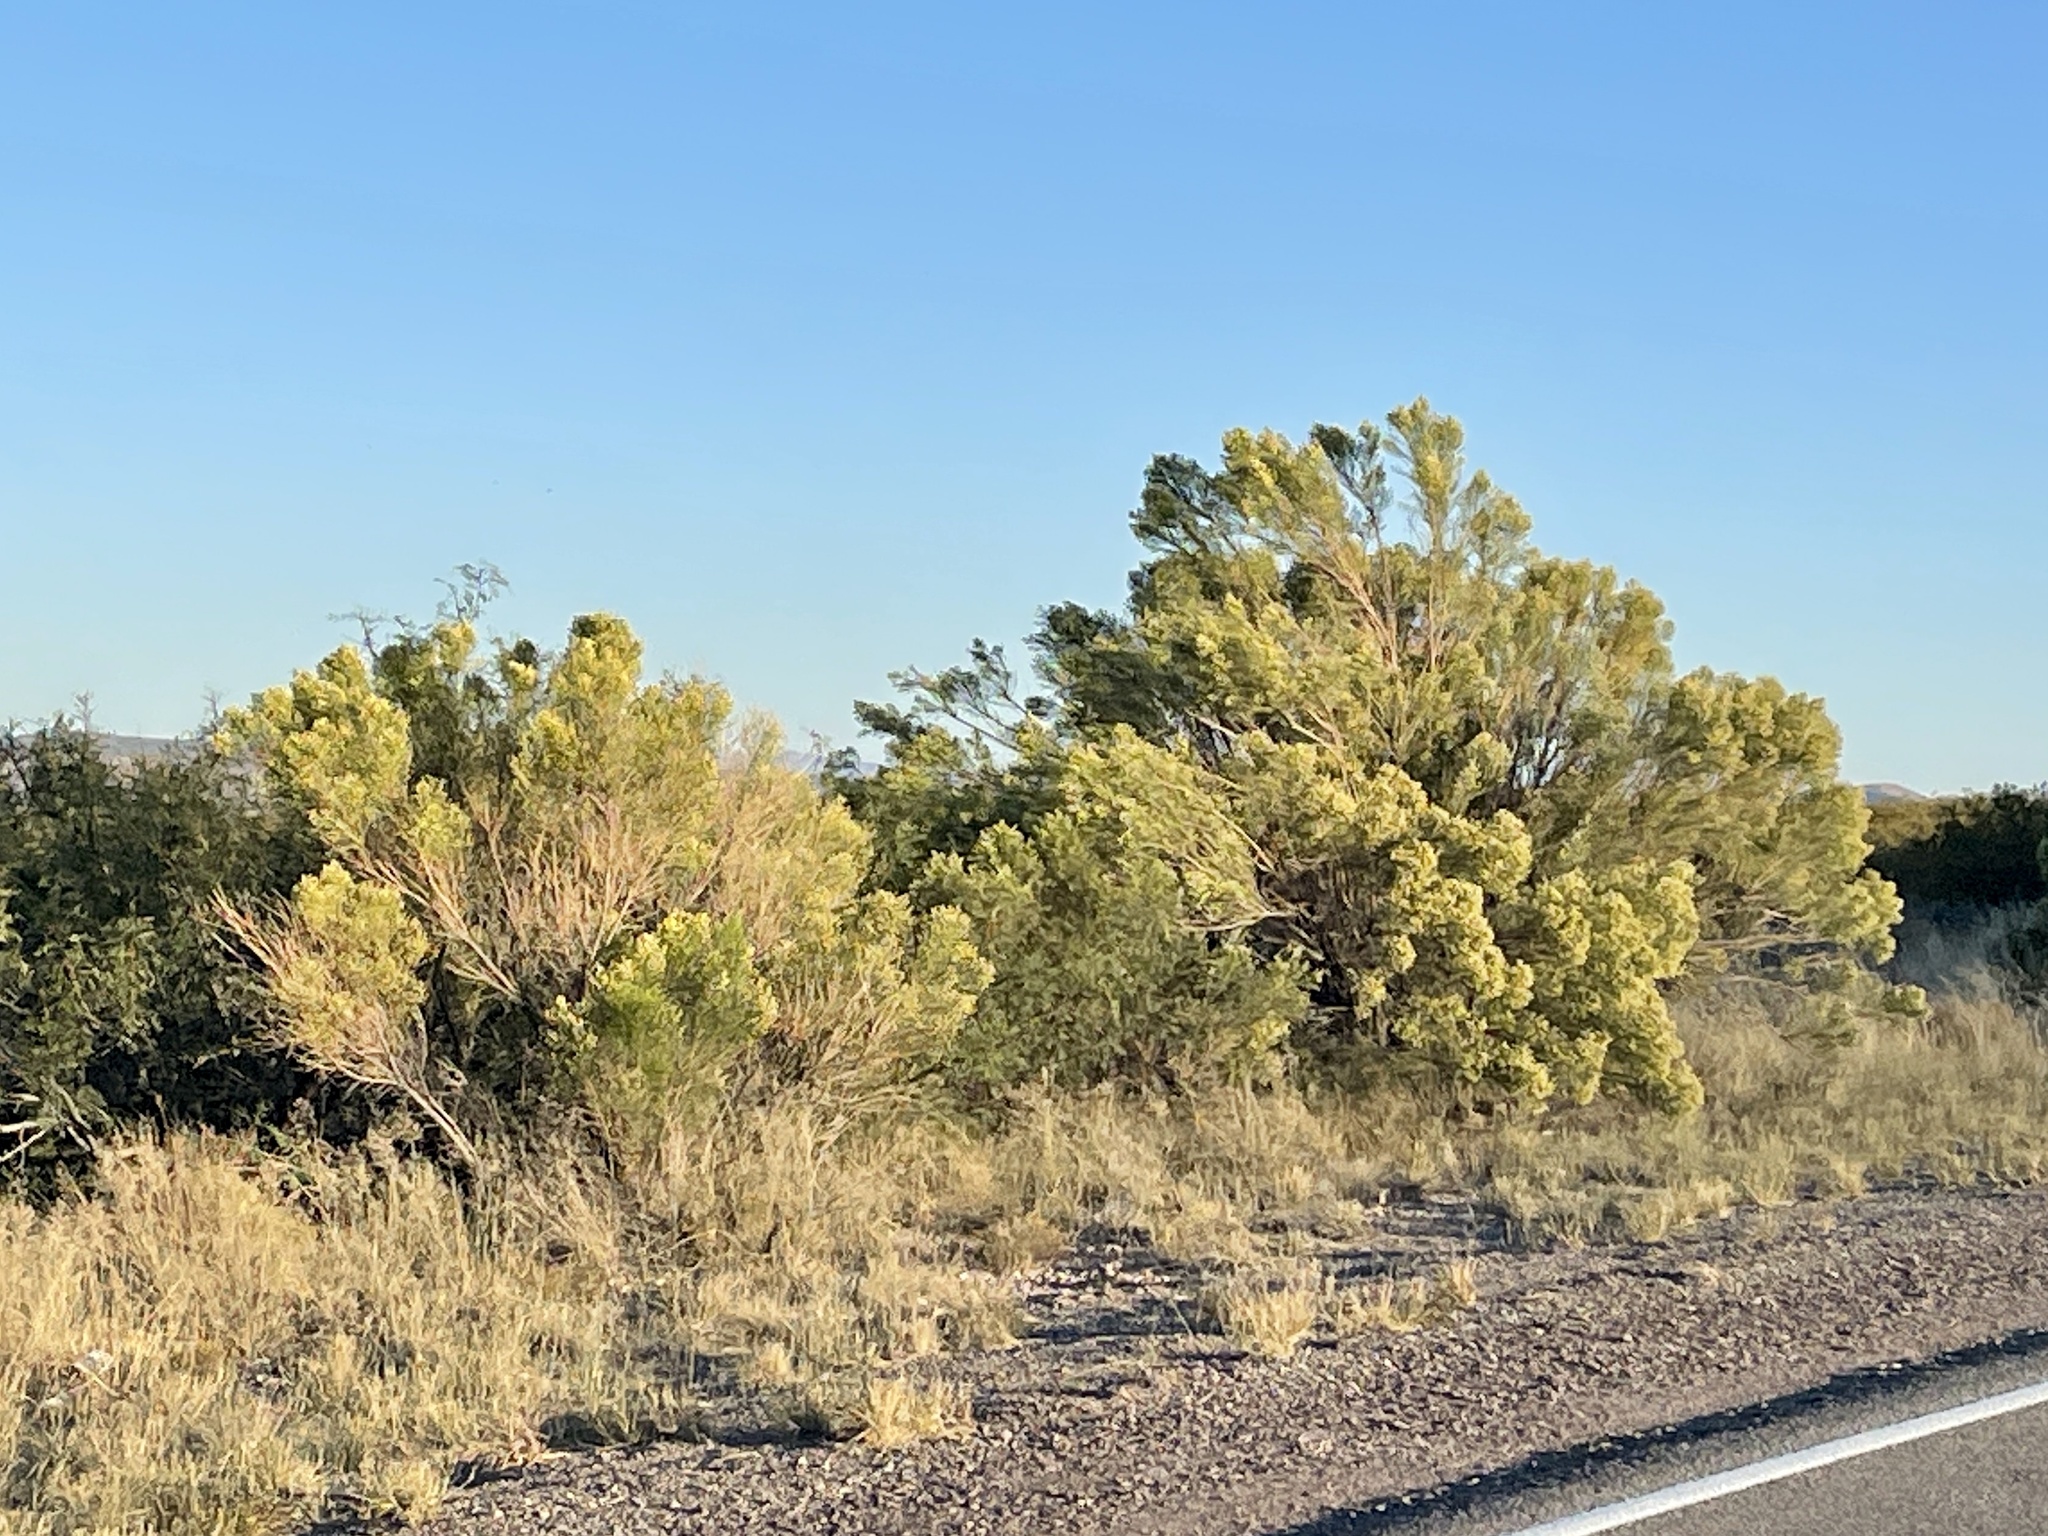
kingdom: Plantae
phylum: Tracheophyta
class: Magnoliopsida
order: Asterales
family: Asteraceae
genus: Baccharis
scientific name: Baccharis sarothroides
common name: Desert-broom
